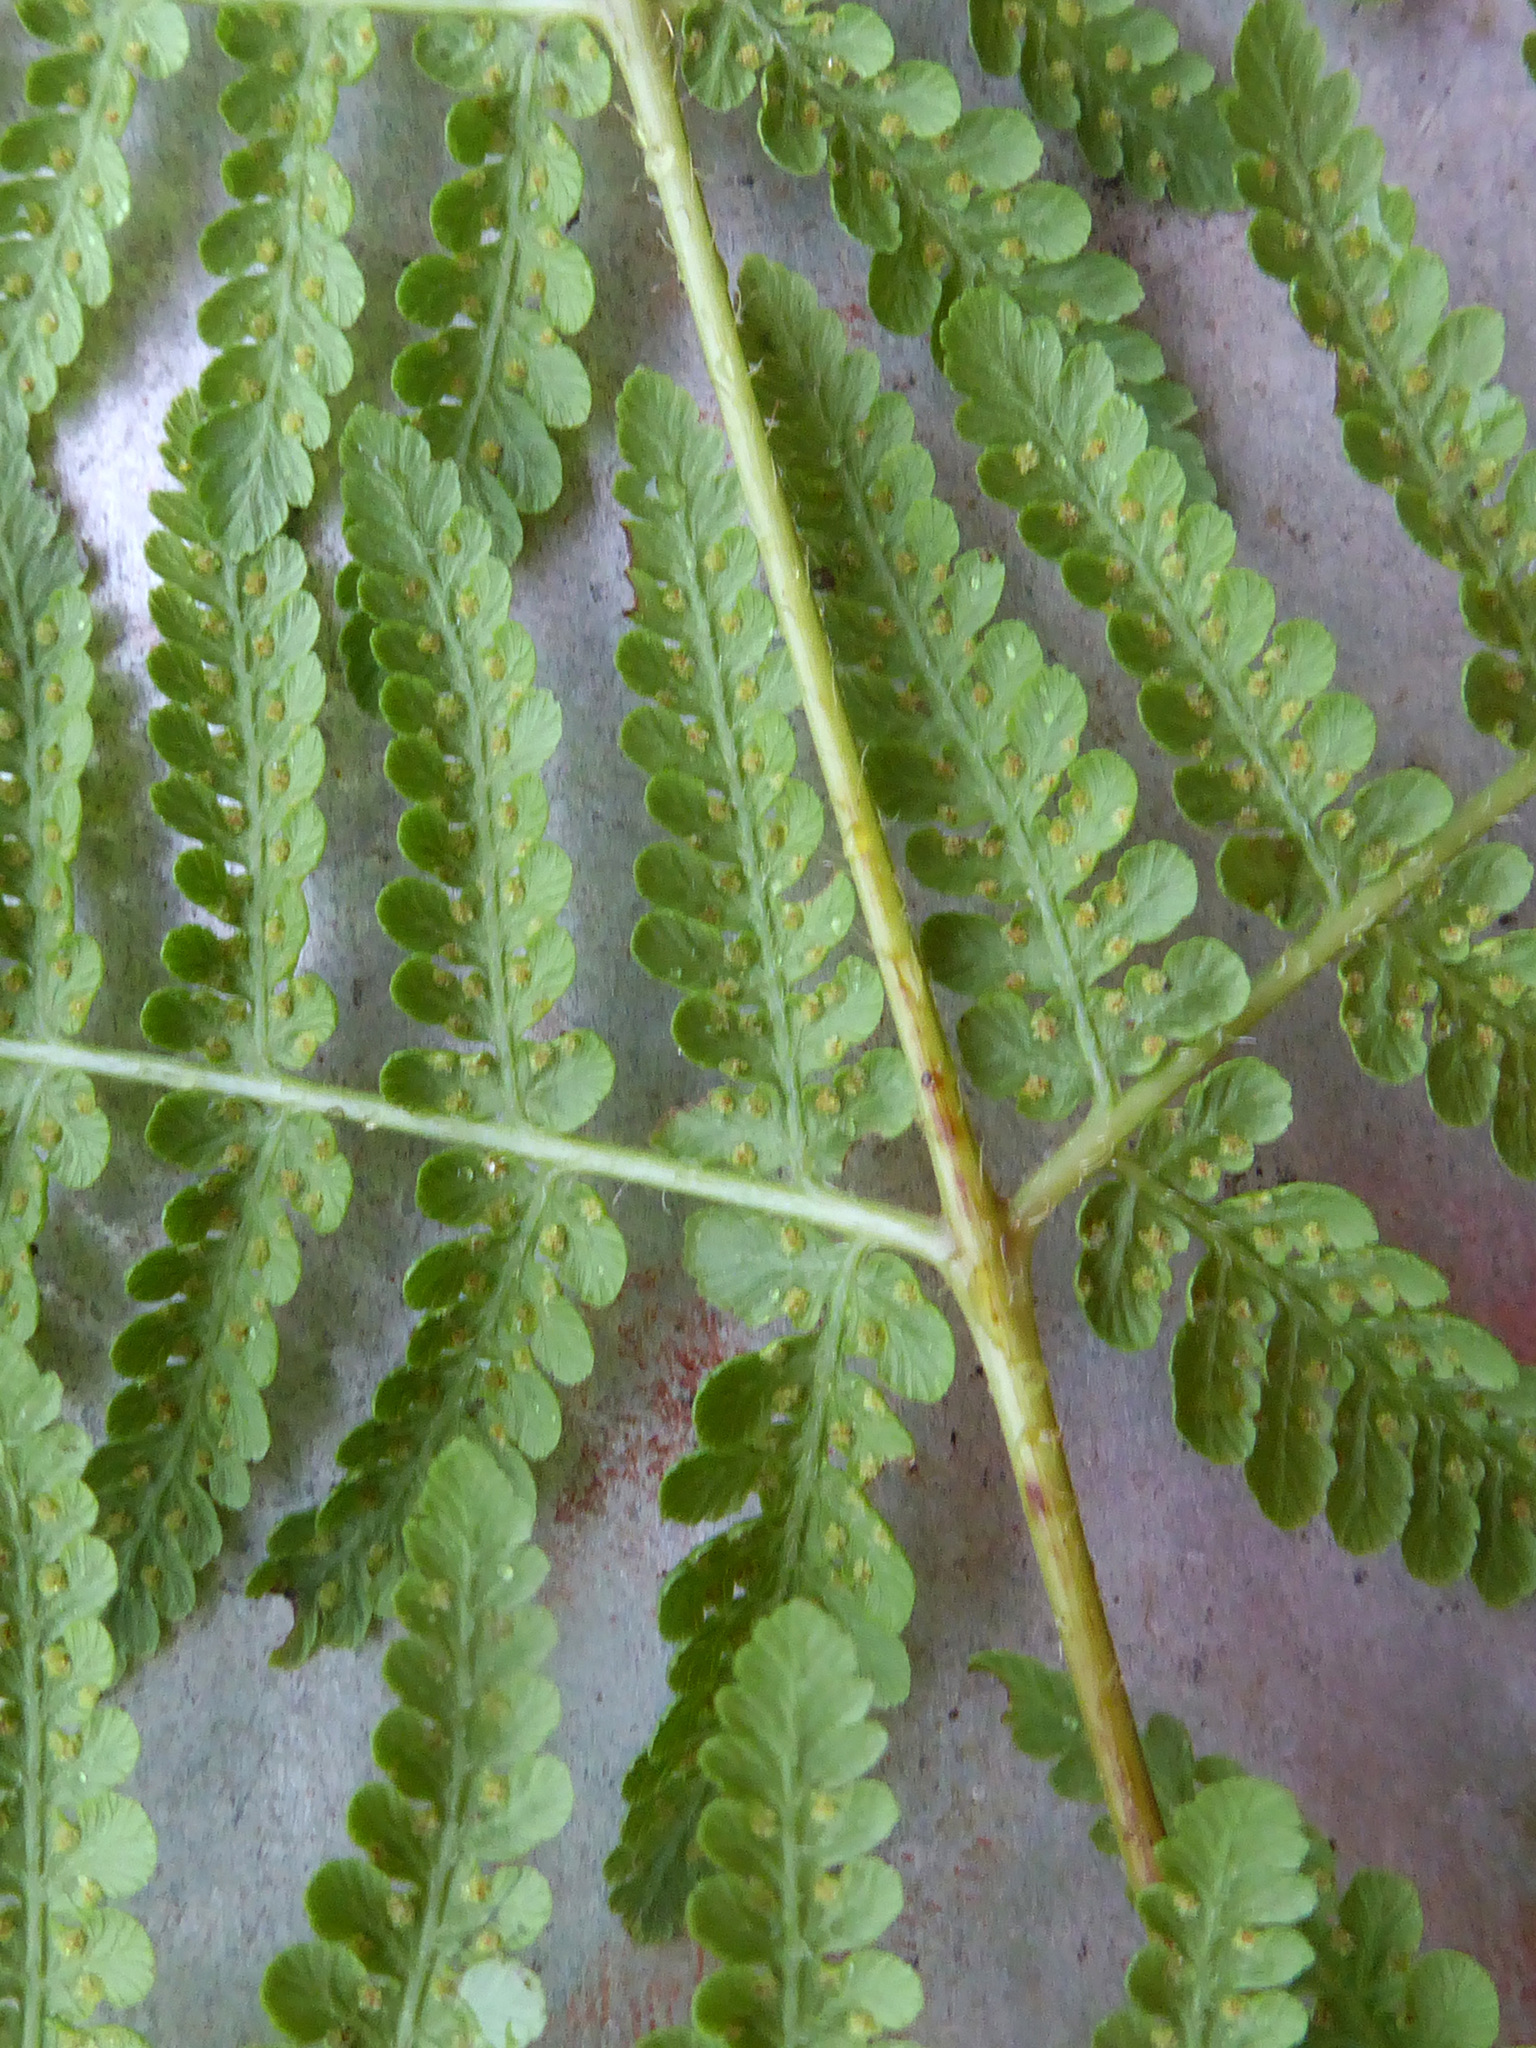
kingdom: Plantae
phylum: Tracheophyta
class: Polypodiopsida
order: Polypodiales
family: Dennstaedtiaceae
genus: Hypolepis
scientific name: Hypolepis ambigua
